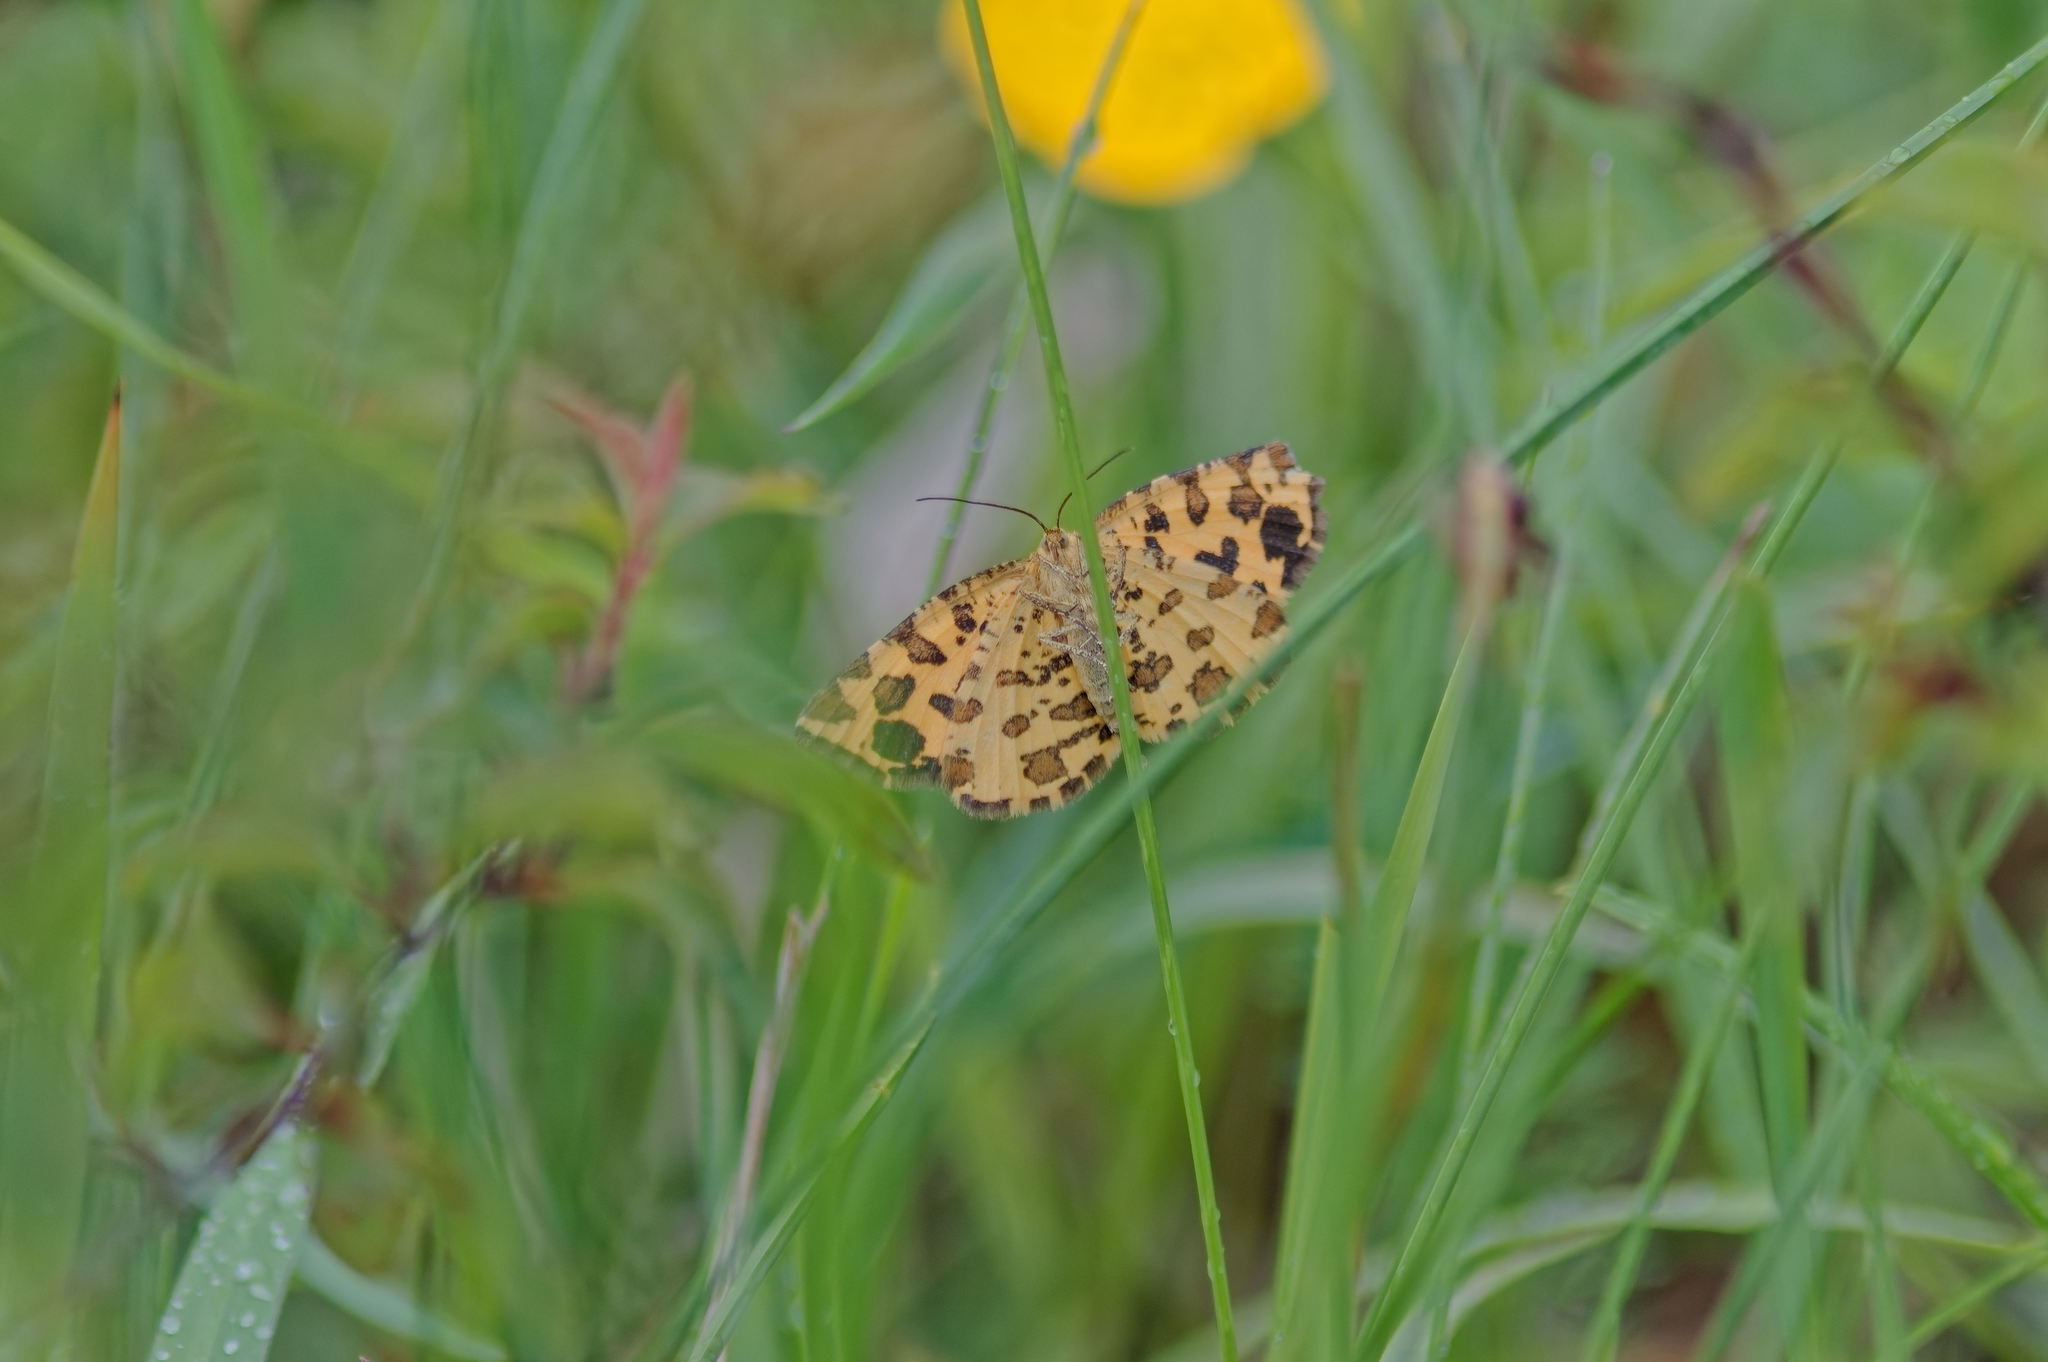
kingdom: Animalia
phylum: Arthropoda
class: Insecta
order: Lepidoptera
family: Geometridae
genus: Pseudopanthera
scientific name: Pseudopanthera macularia
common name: Speckled yellow
